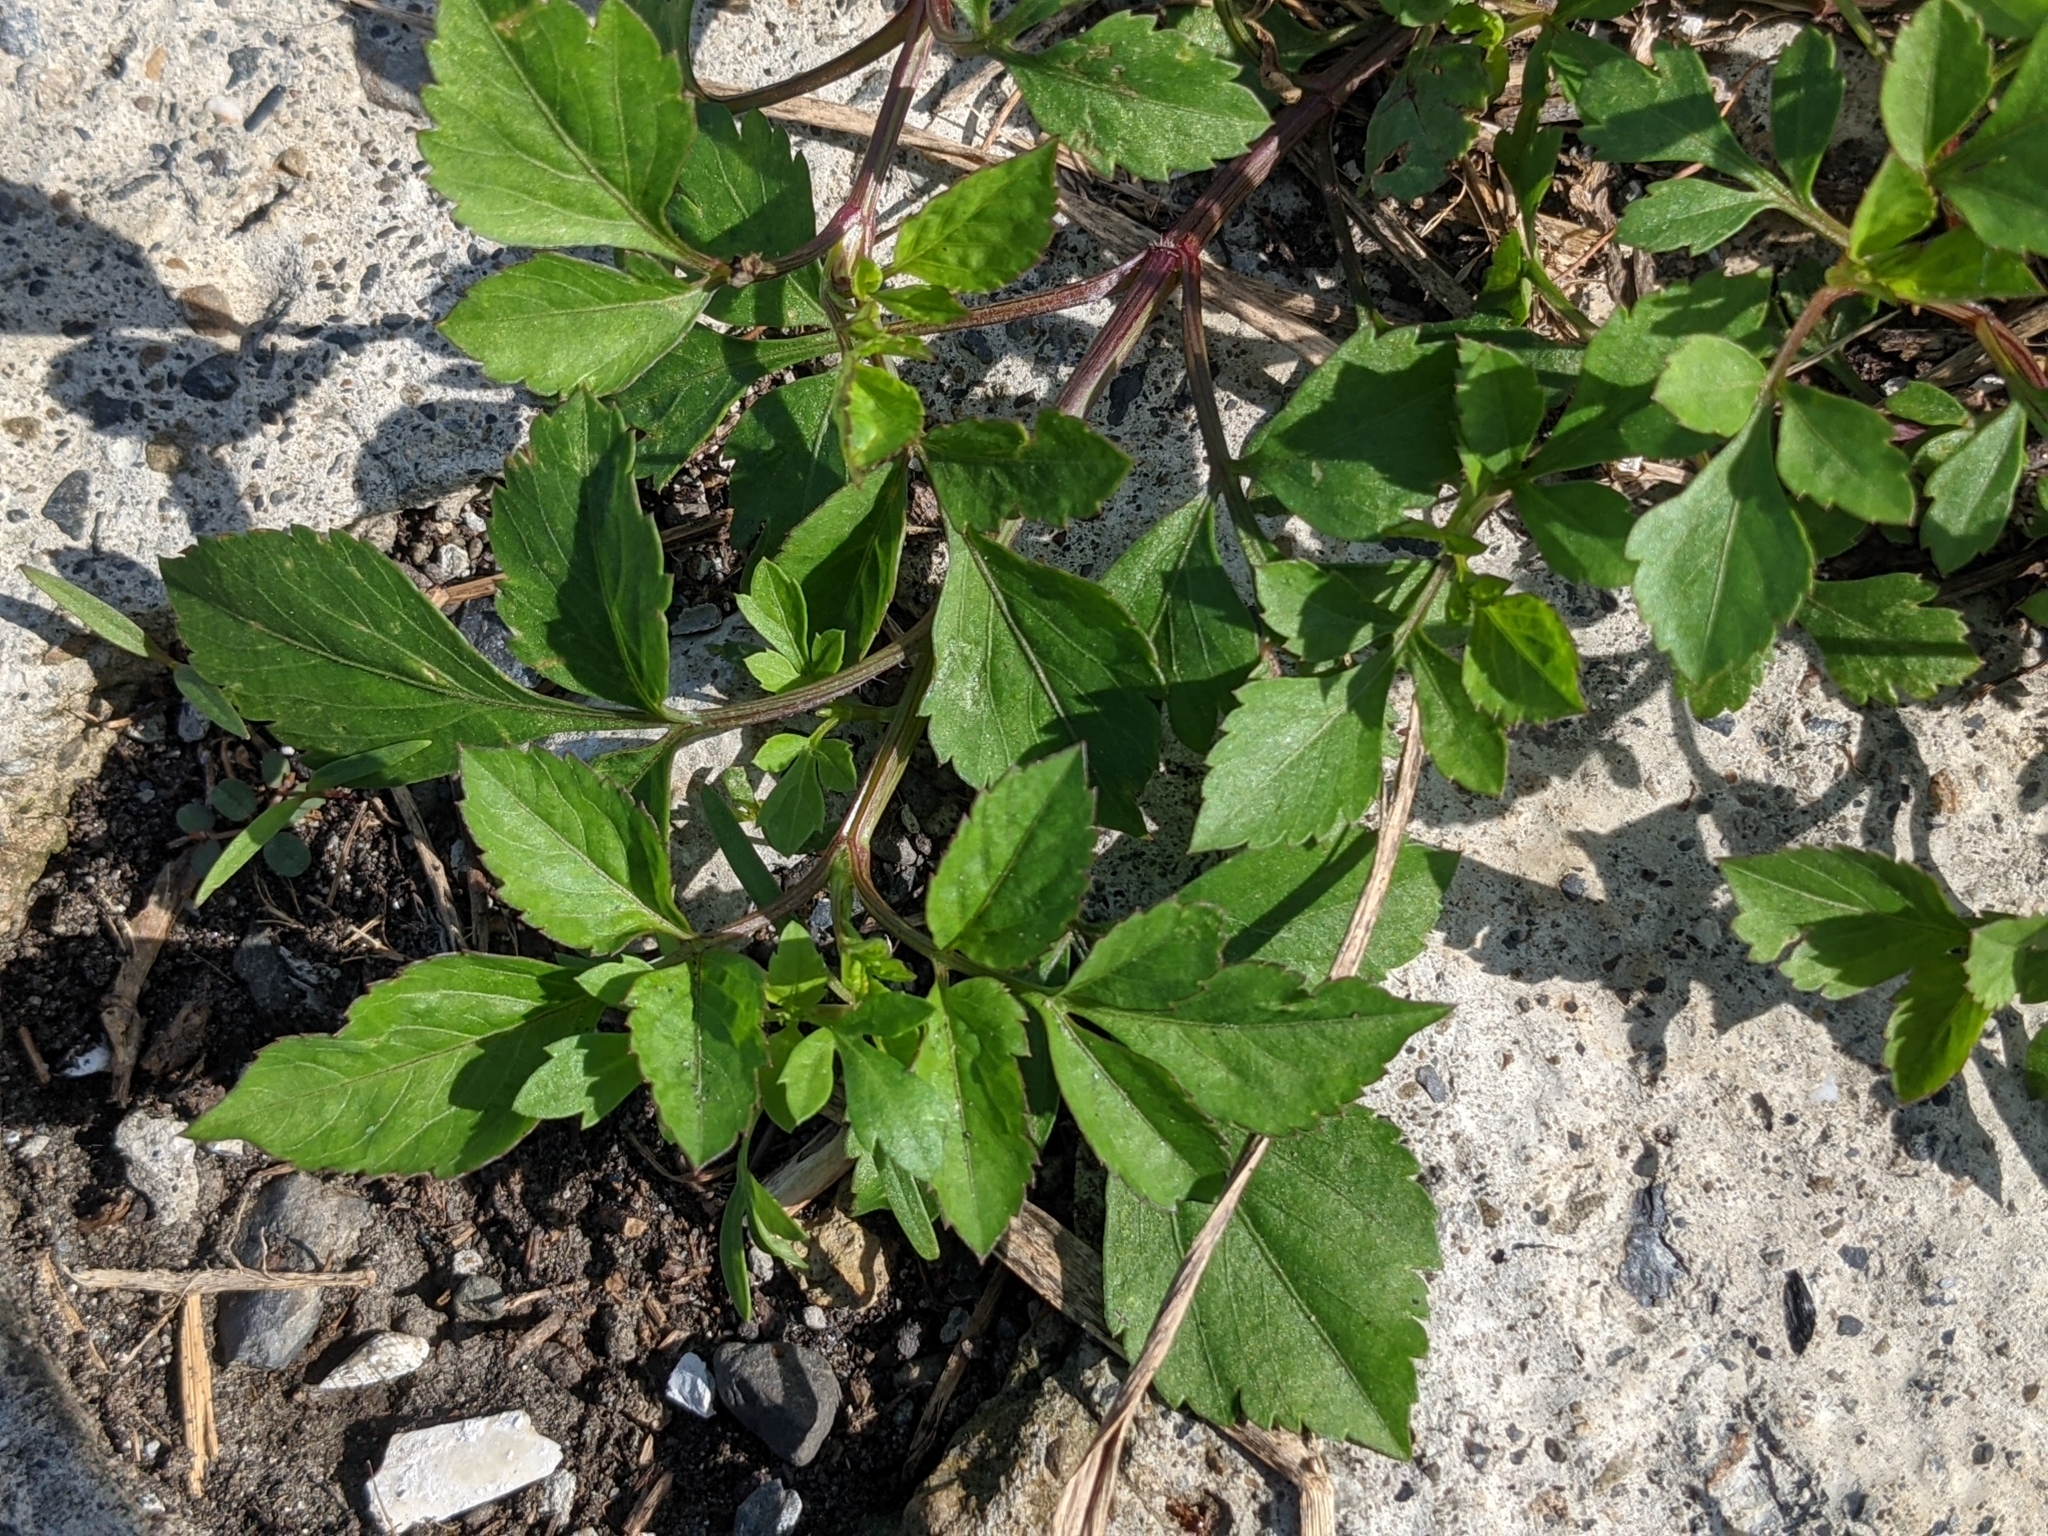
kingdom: Plantae
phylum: Tracheophyta
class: Magnoliopsida
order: Asterales
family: Asteraceae
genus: Bidens
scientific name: Bidens pilosa
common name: Black-jack
